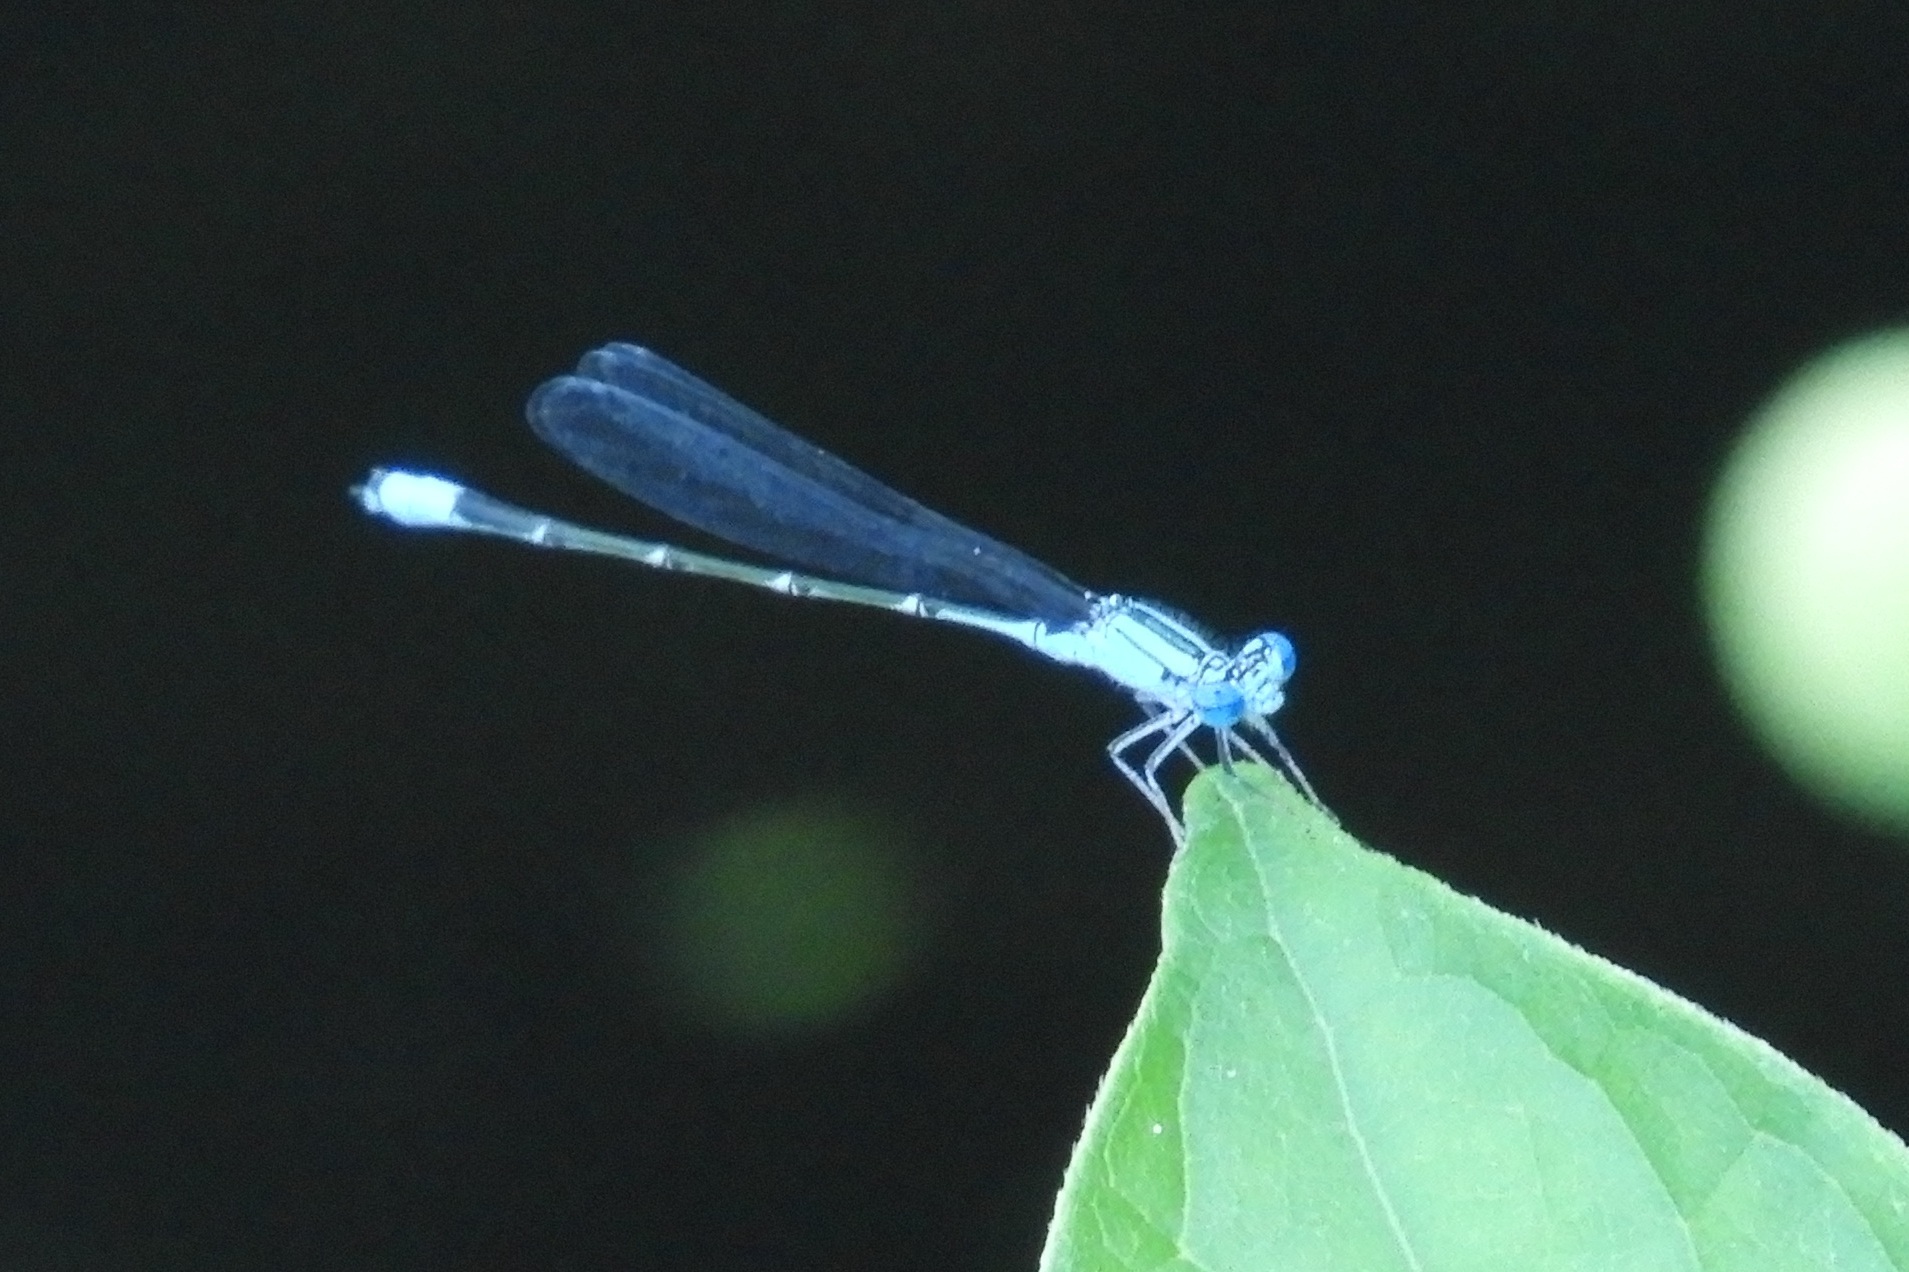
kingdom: Animalia
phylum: Arthropoda
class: Insecta
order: Odonata
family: Coenagrionidae
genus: Enallagma
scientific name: Enallagma traviatum
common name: Slender bluet
